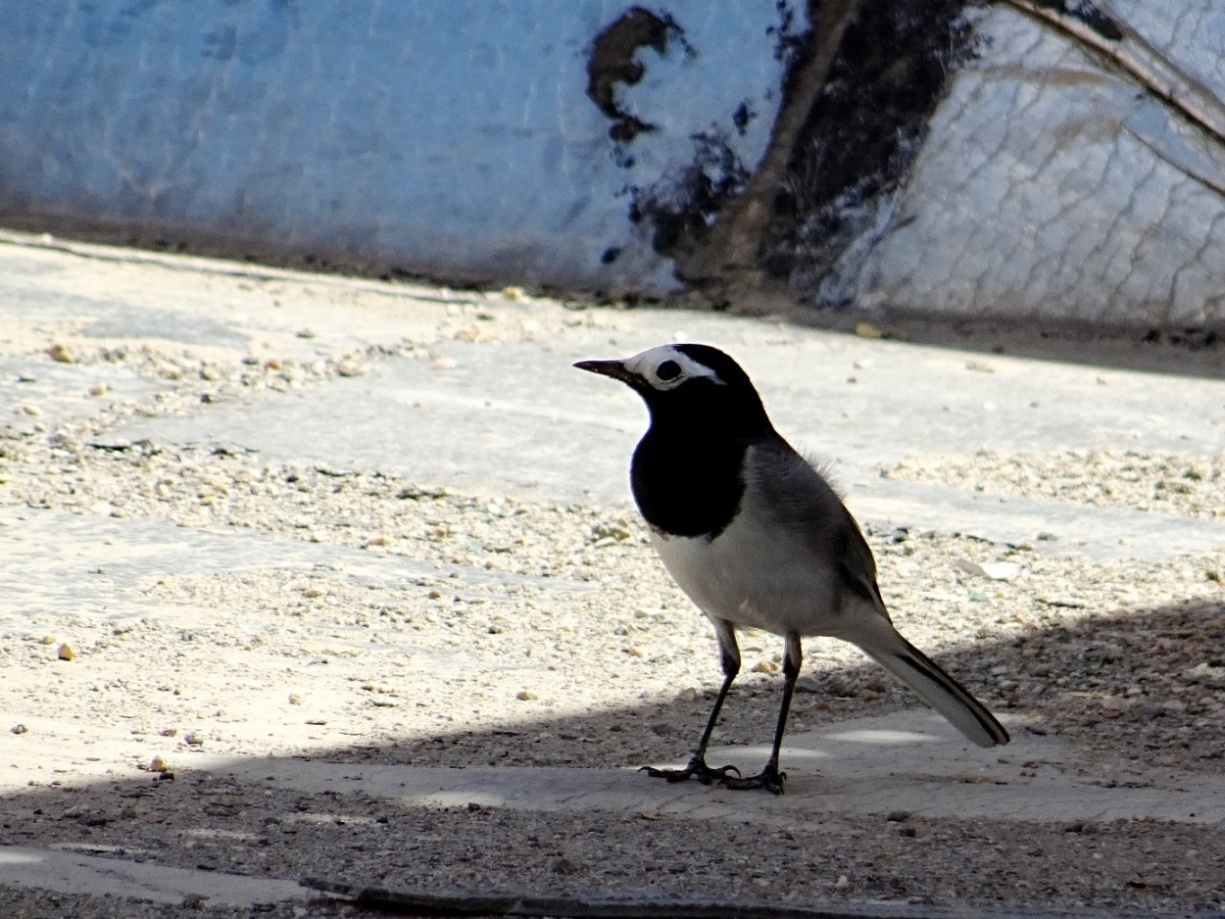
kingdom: Animalia
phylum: Chordata
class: Aves
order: Passeriformes
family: Motacillidae
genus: Motacilla
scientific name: Motacilla alba
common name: White wagtail
